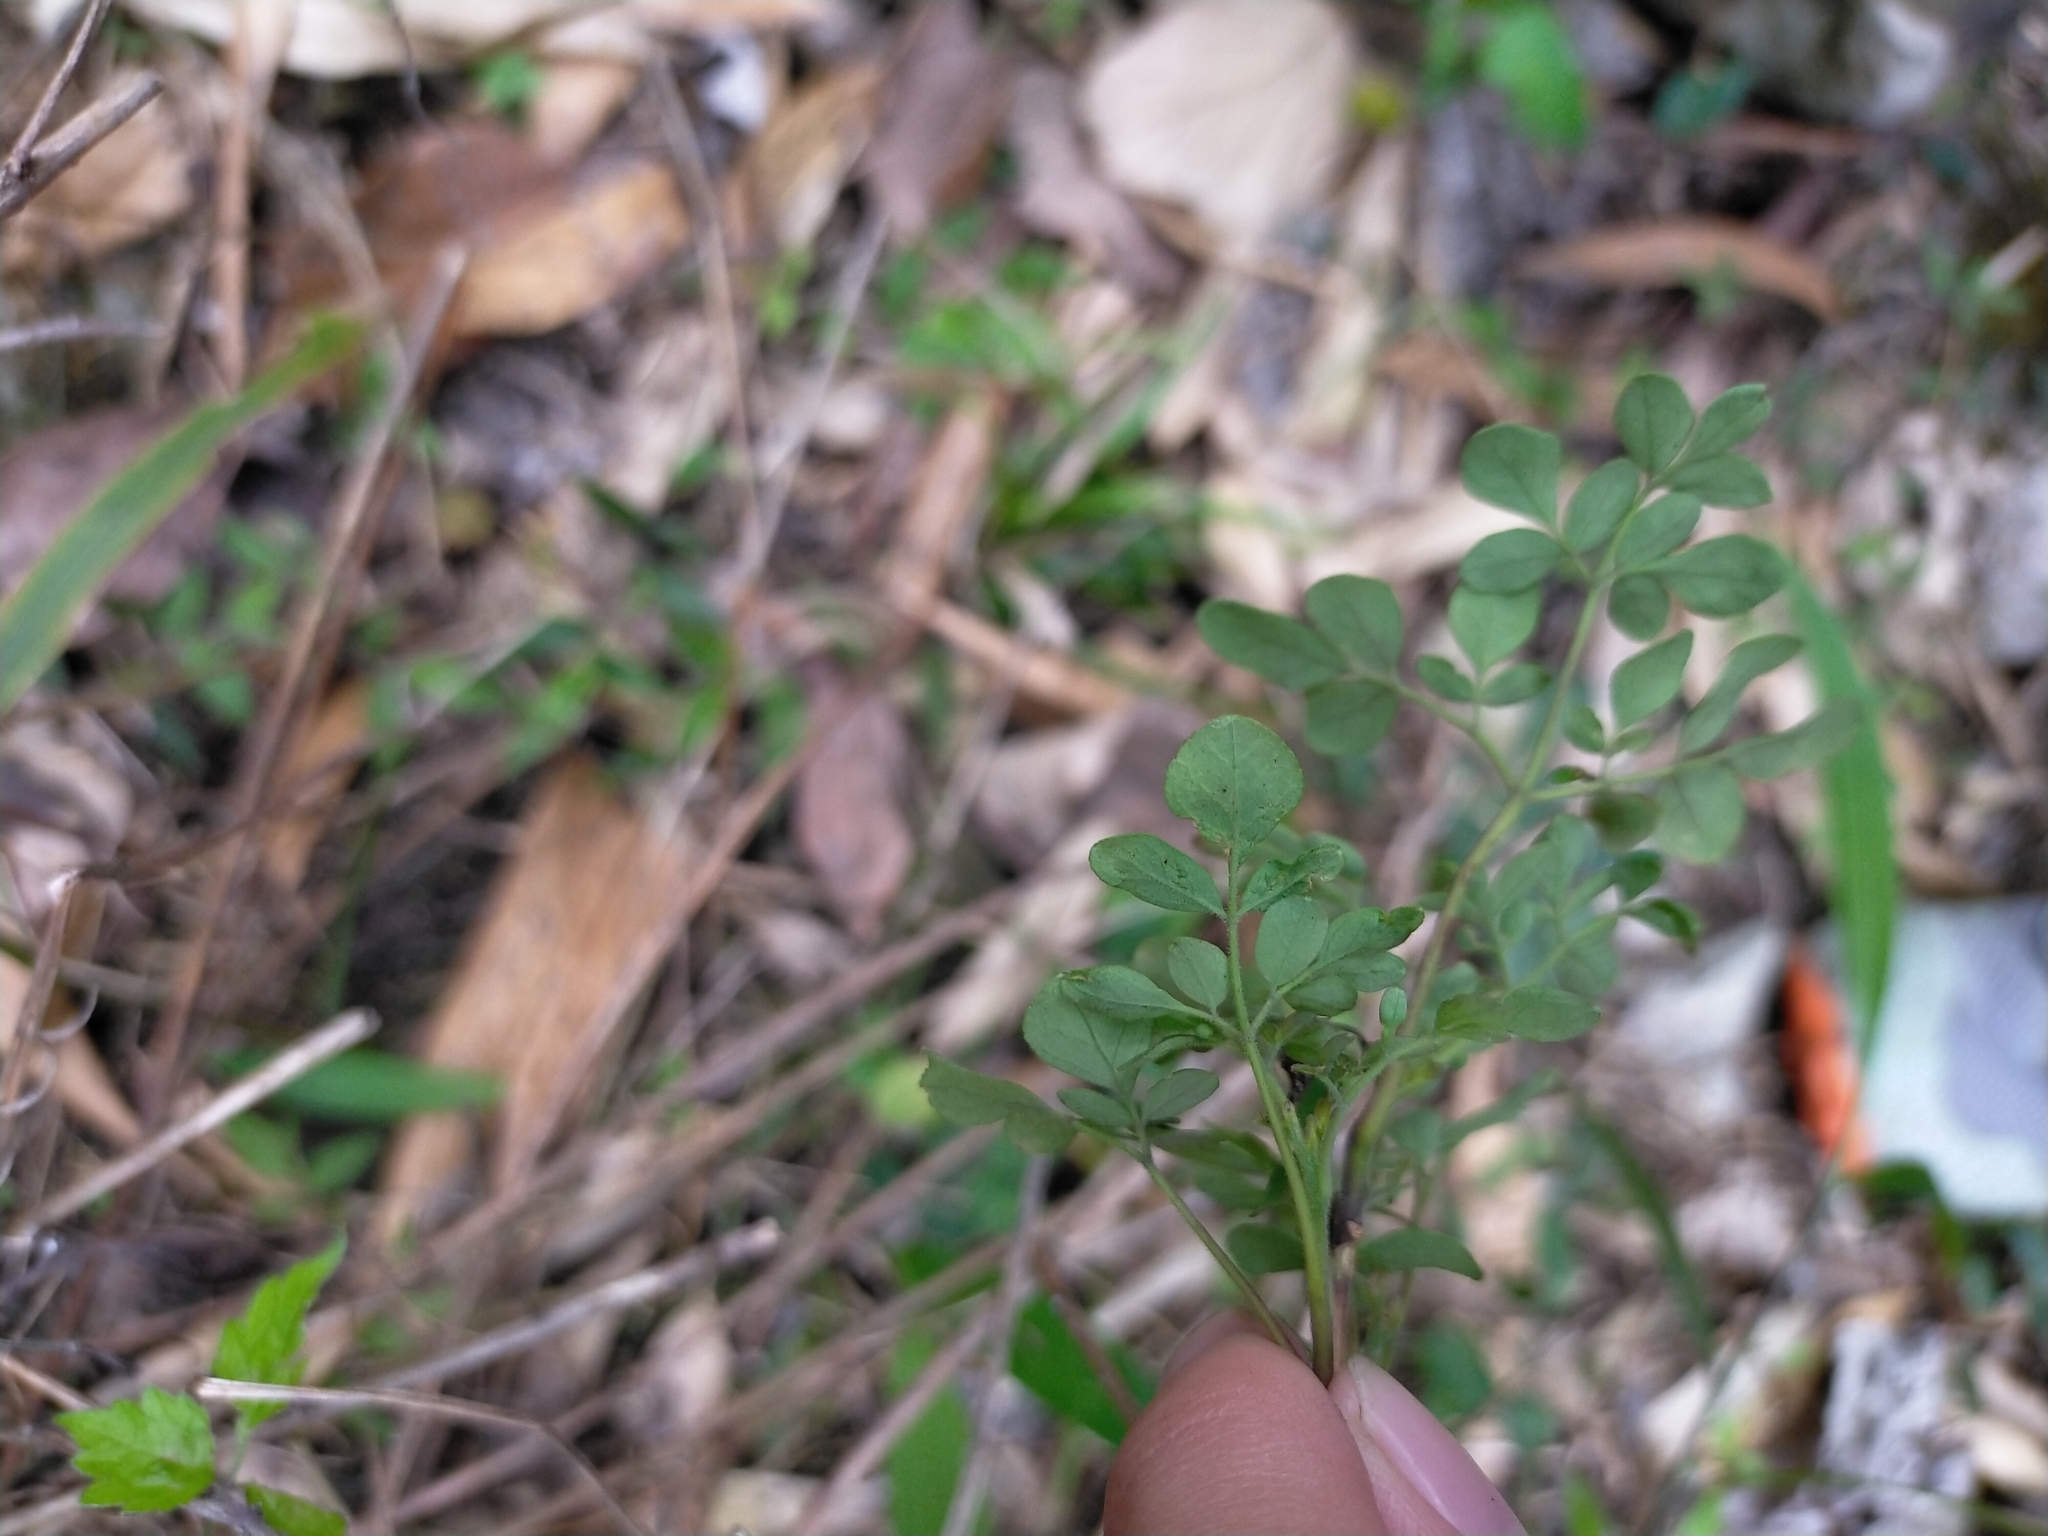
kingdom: Plantae
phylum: Tracheophyta
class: Magnoliopsida
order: Sapindales
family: Rutaceae
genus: Boenninghausenia
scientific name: Boenninghausenia albiflora
